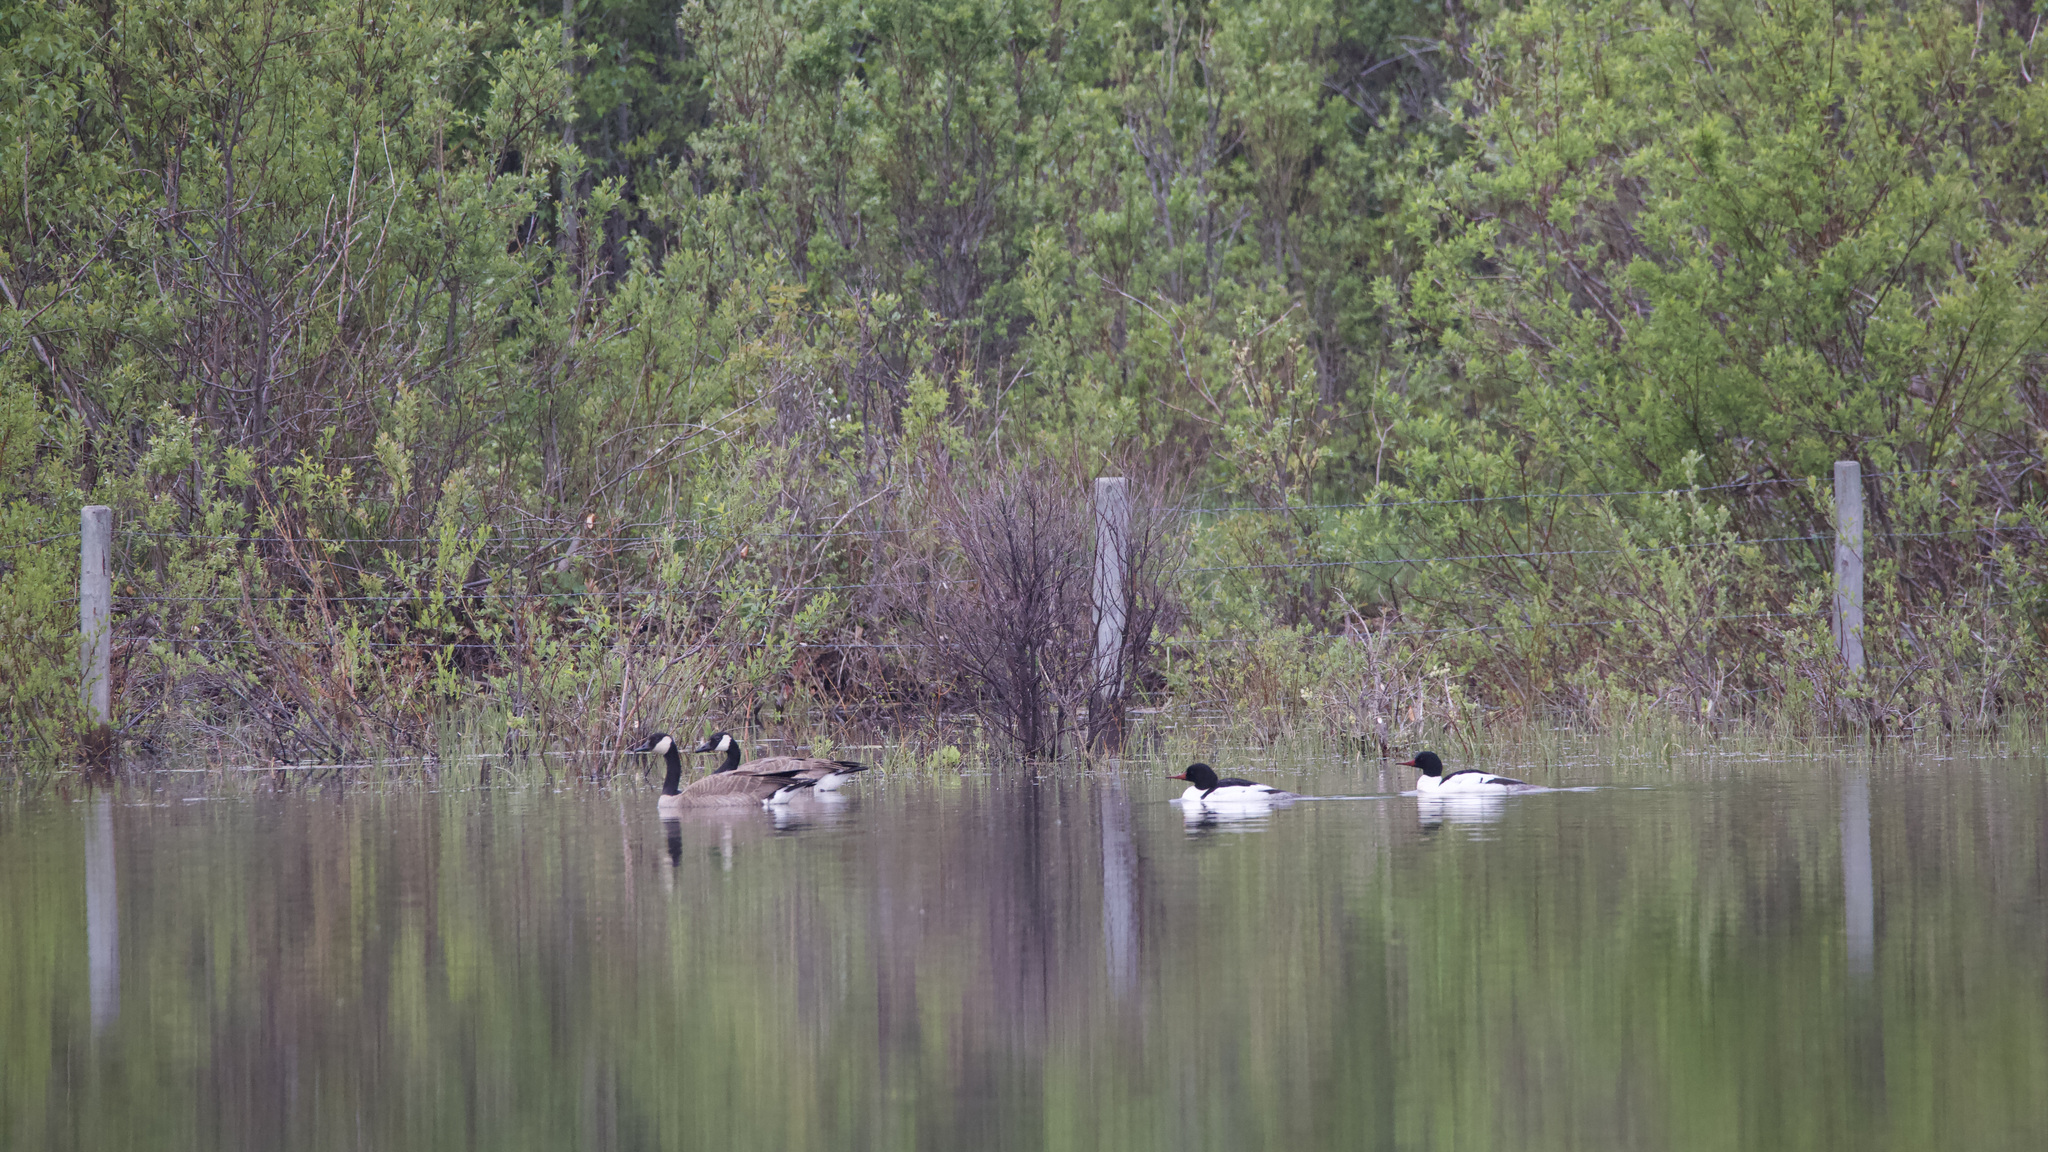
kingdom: Animalia
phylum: Chordata
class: Aves
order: Anseriformes
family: Anatidae
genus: Branta
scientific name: Branta canadensis
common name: Canada goose
